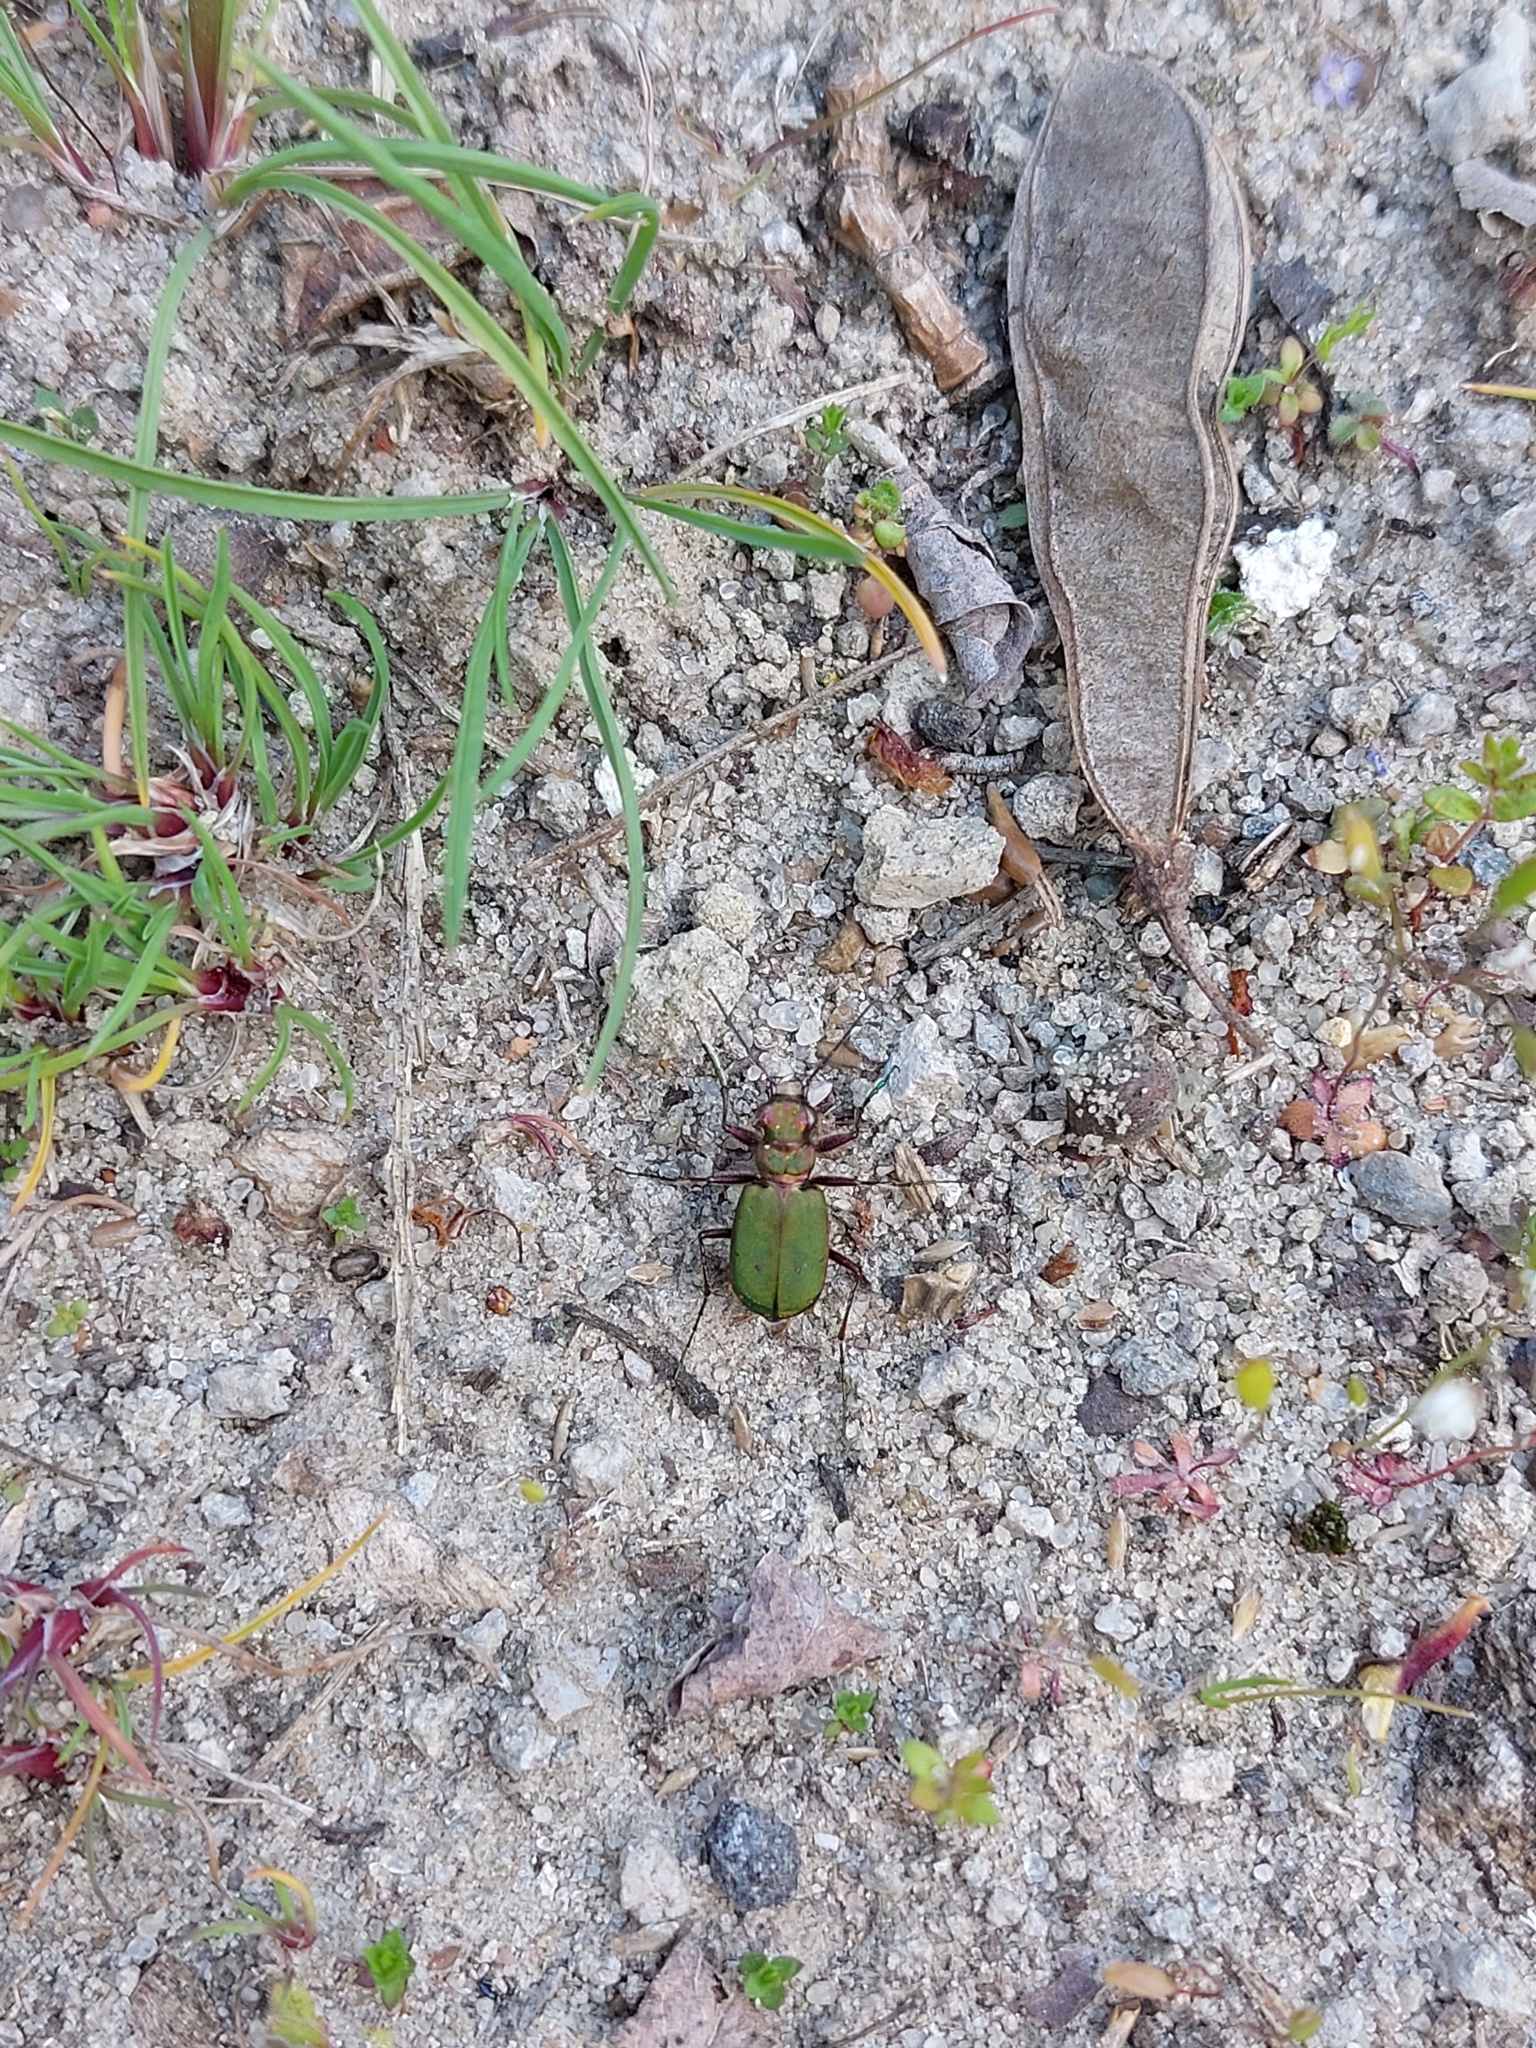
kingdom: Animalia
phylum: Arthropoda
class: Insecta
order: Coleoptera
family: Carabidae
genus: Cicindela
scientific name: Cicindela campestris
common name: Common tiger beetle
